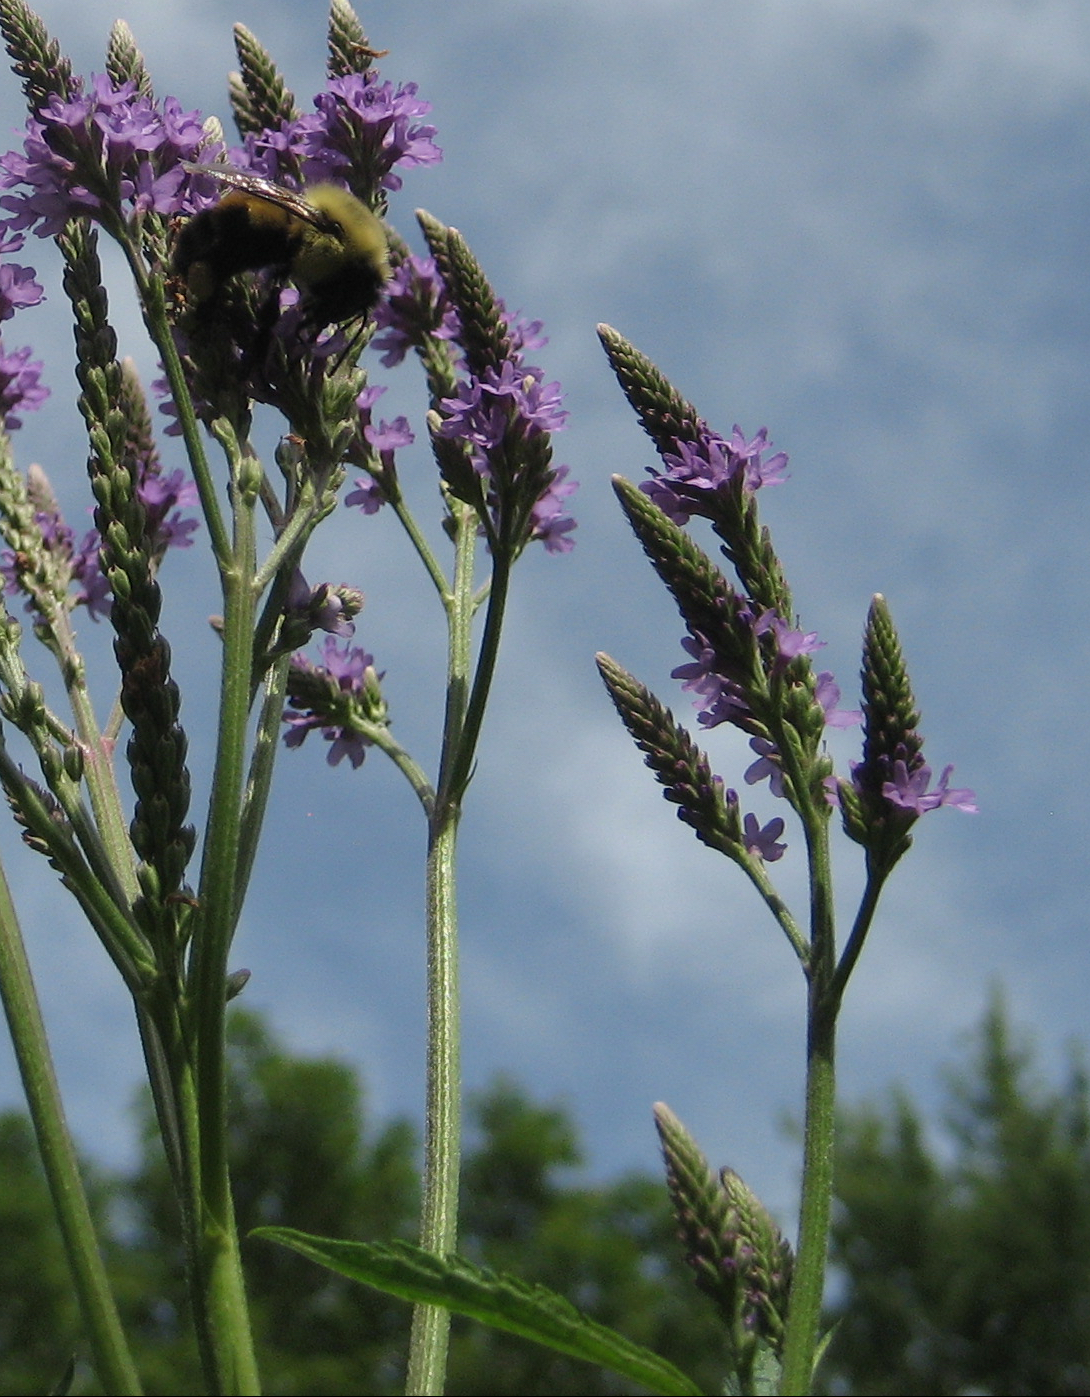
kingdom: Animalia
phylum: Arthropoda
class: Insecta
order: Hymenoptera
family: Apidae
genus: Bombus
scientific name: Bombus bimaculatus
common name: Two-spotted bumble bee
